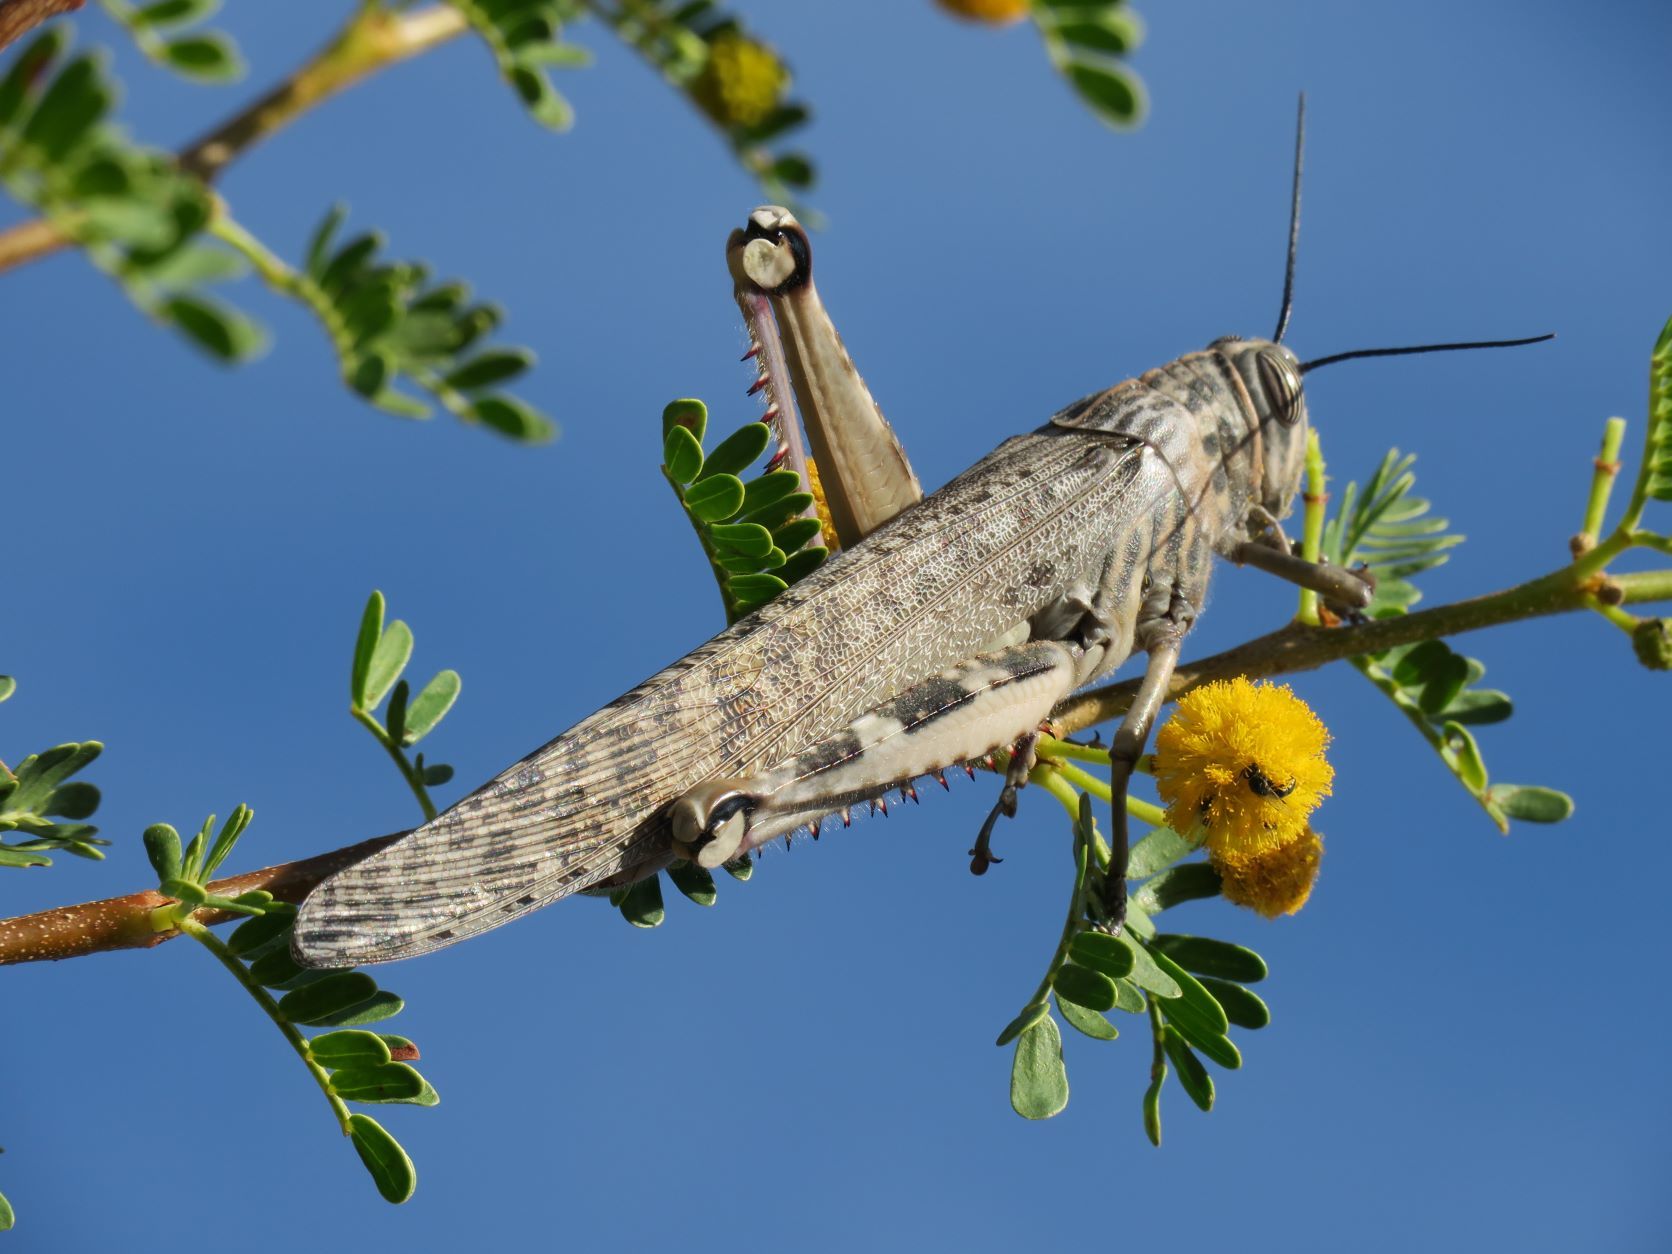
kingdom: Animalia
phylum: Arthropoda
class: Insecta
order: Orthoptera
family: Acrididae
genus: Anacridium
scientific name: Anacridium moestum
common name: Tree locust
